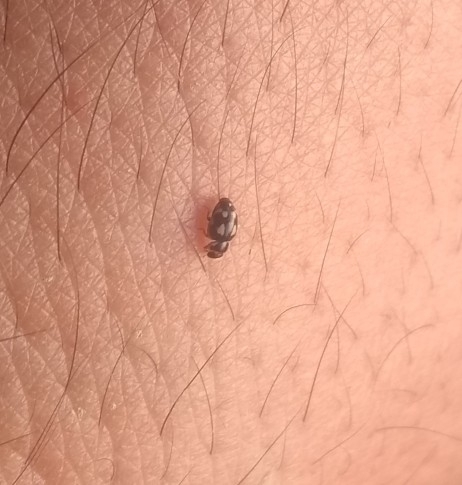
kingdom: Animalia
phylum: Arthropoda
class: Insecta
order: Coleoptera
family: Coccinellidae
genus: Hyperaspis
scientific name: Hyperaspis festiva
